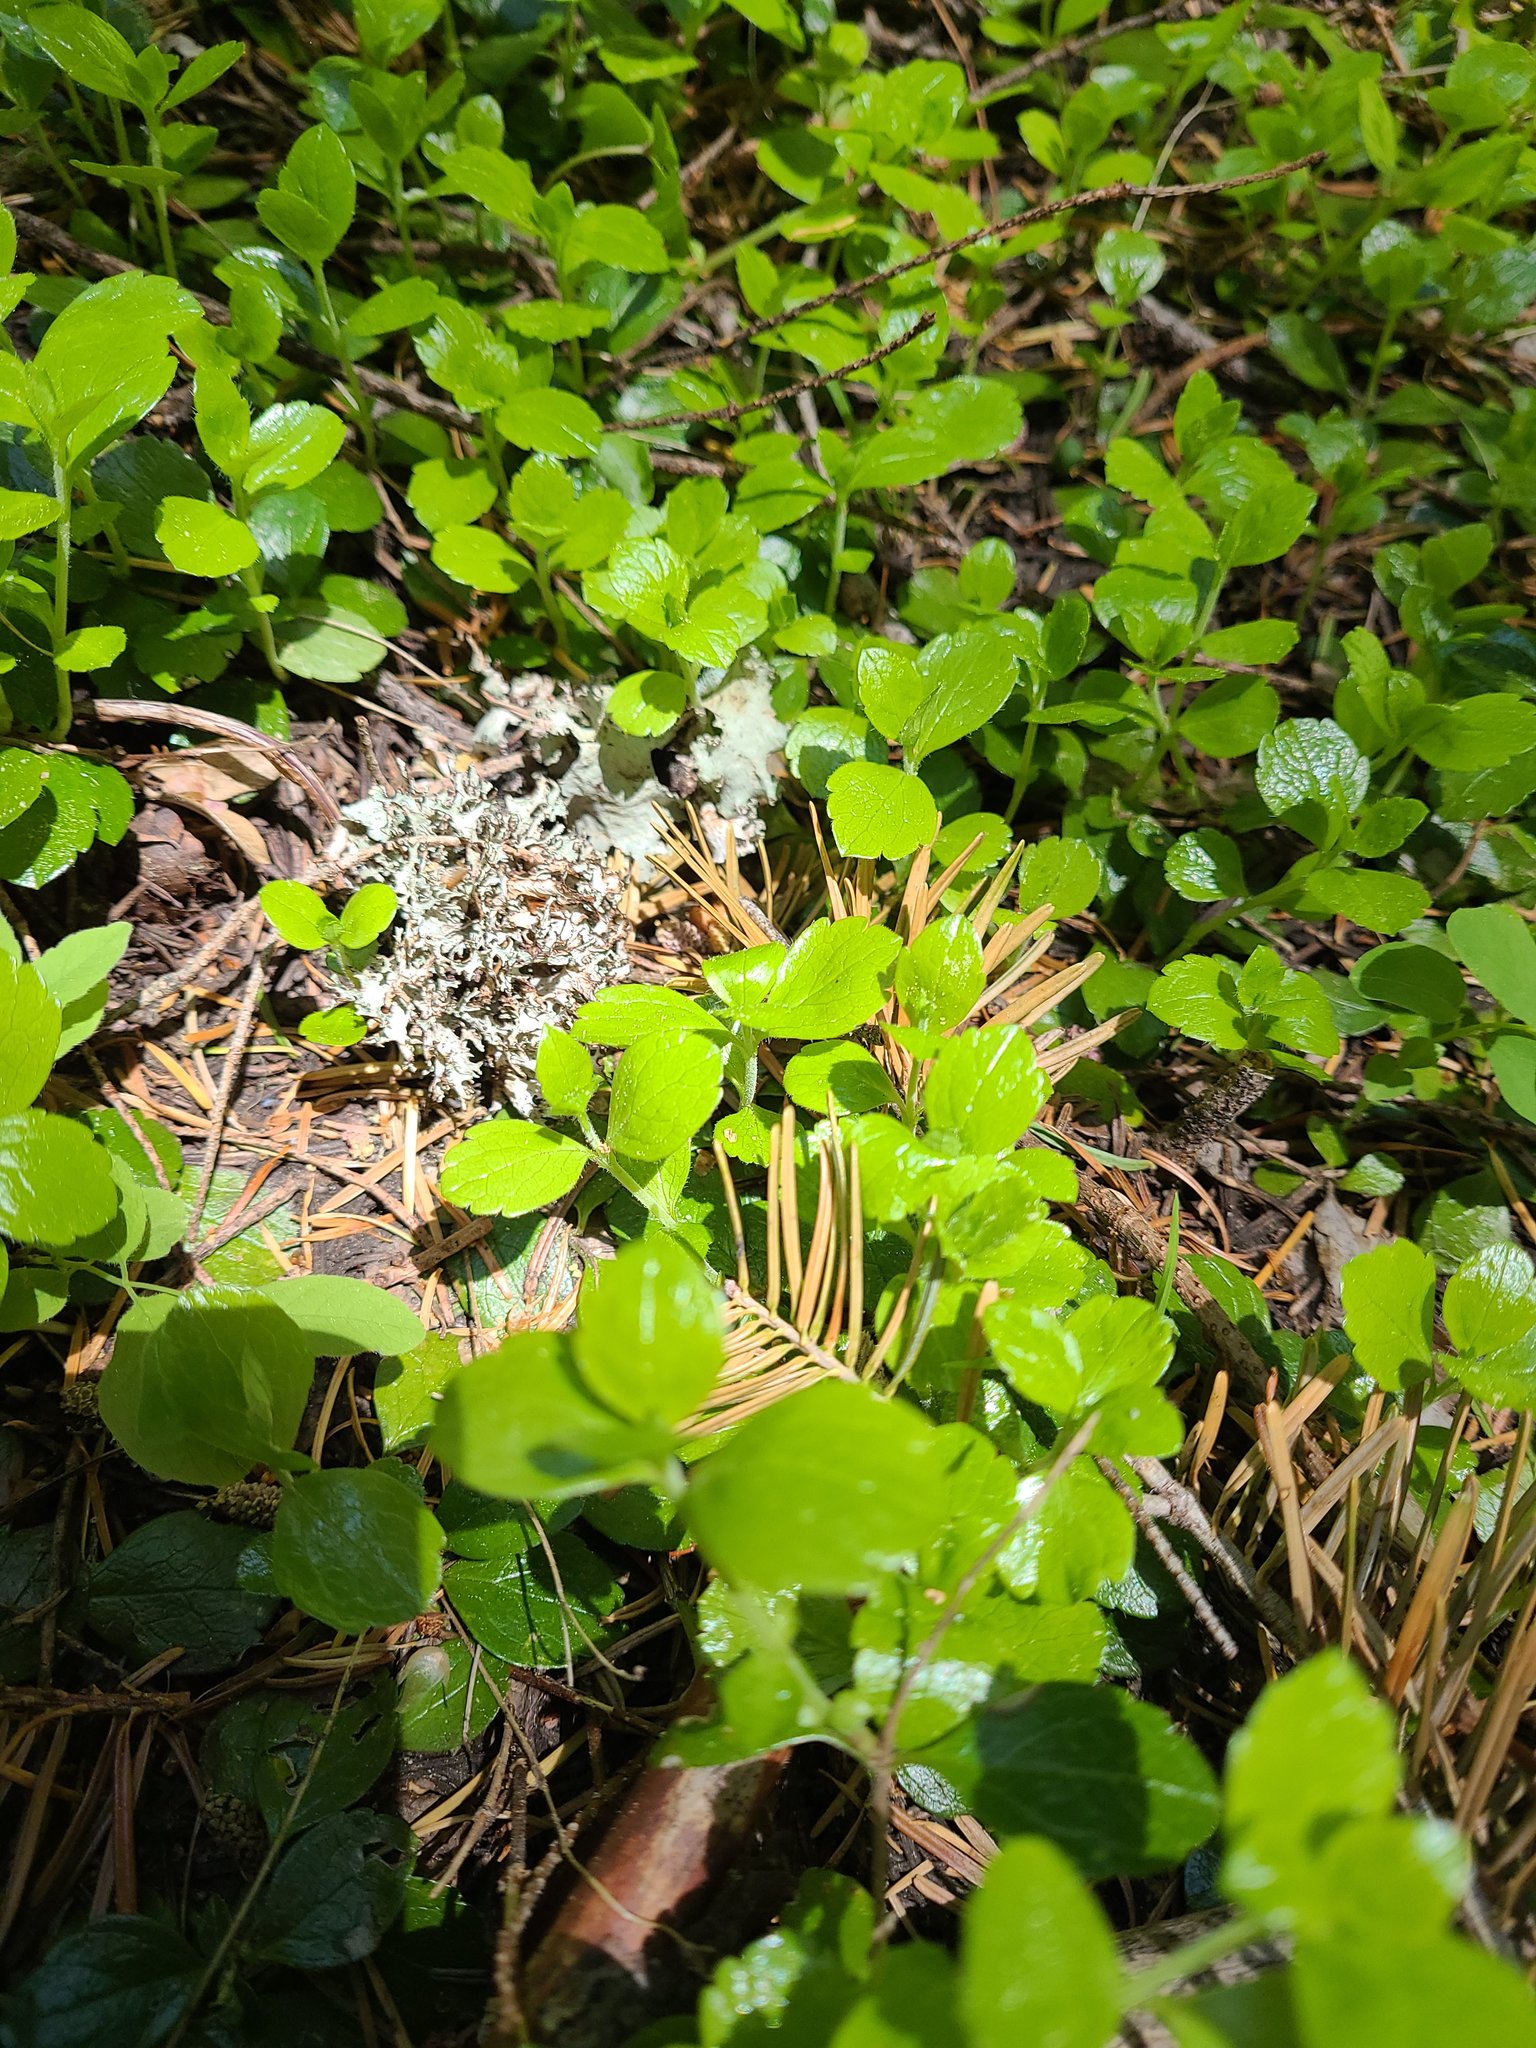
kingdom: Plantae
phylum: Tracheophyta
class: Magnoliopsida
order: Dipsacales
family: Caprifoliaceae
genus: Linnaea
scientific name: Linnaea borealis
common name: Twinflower
